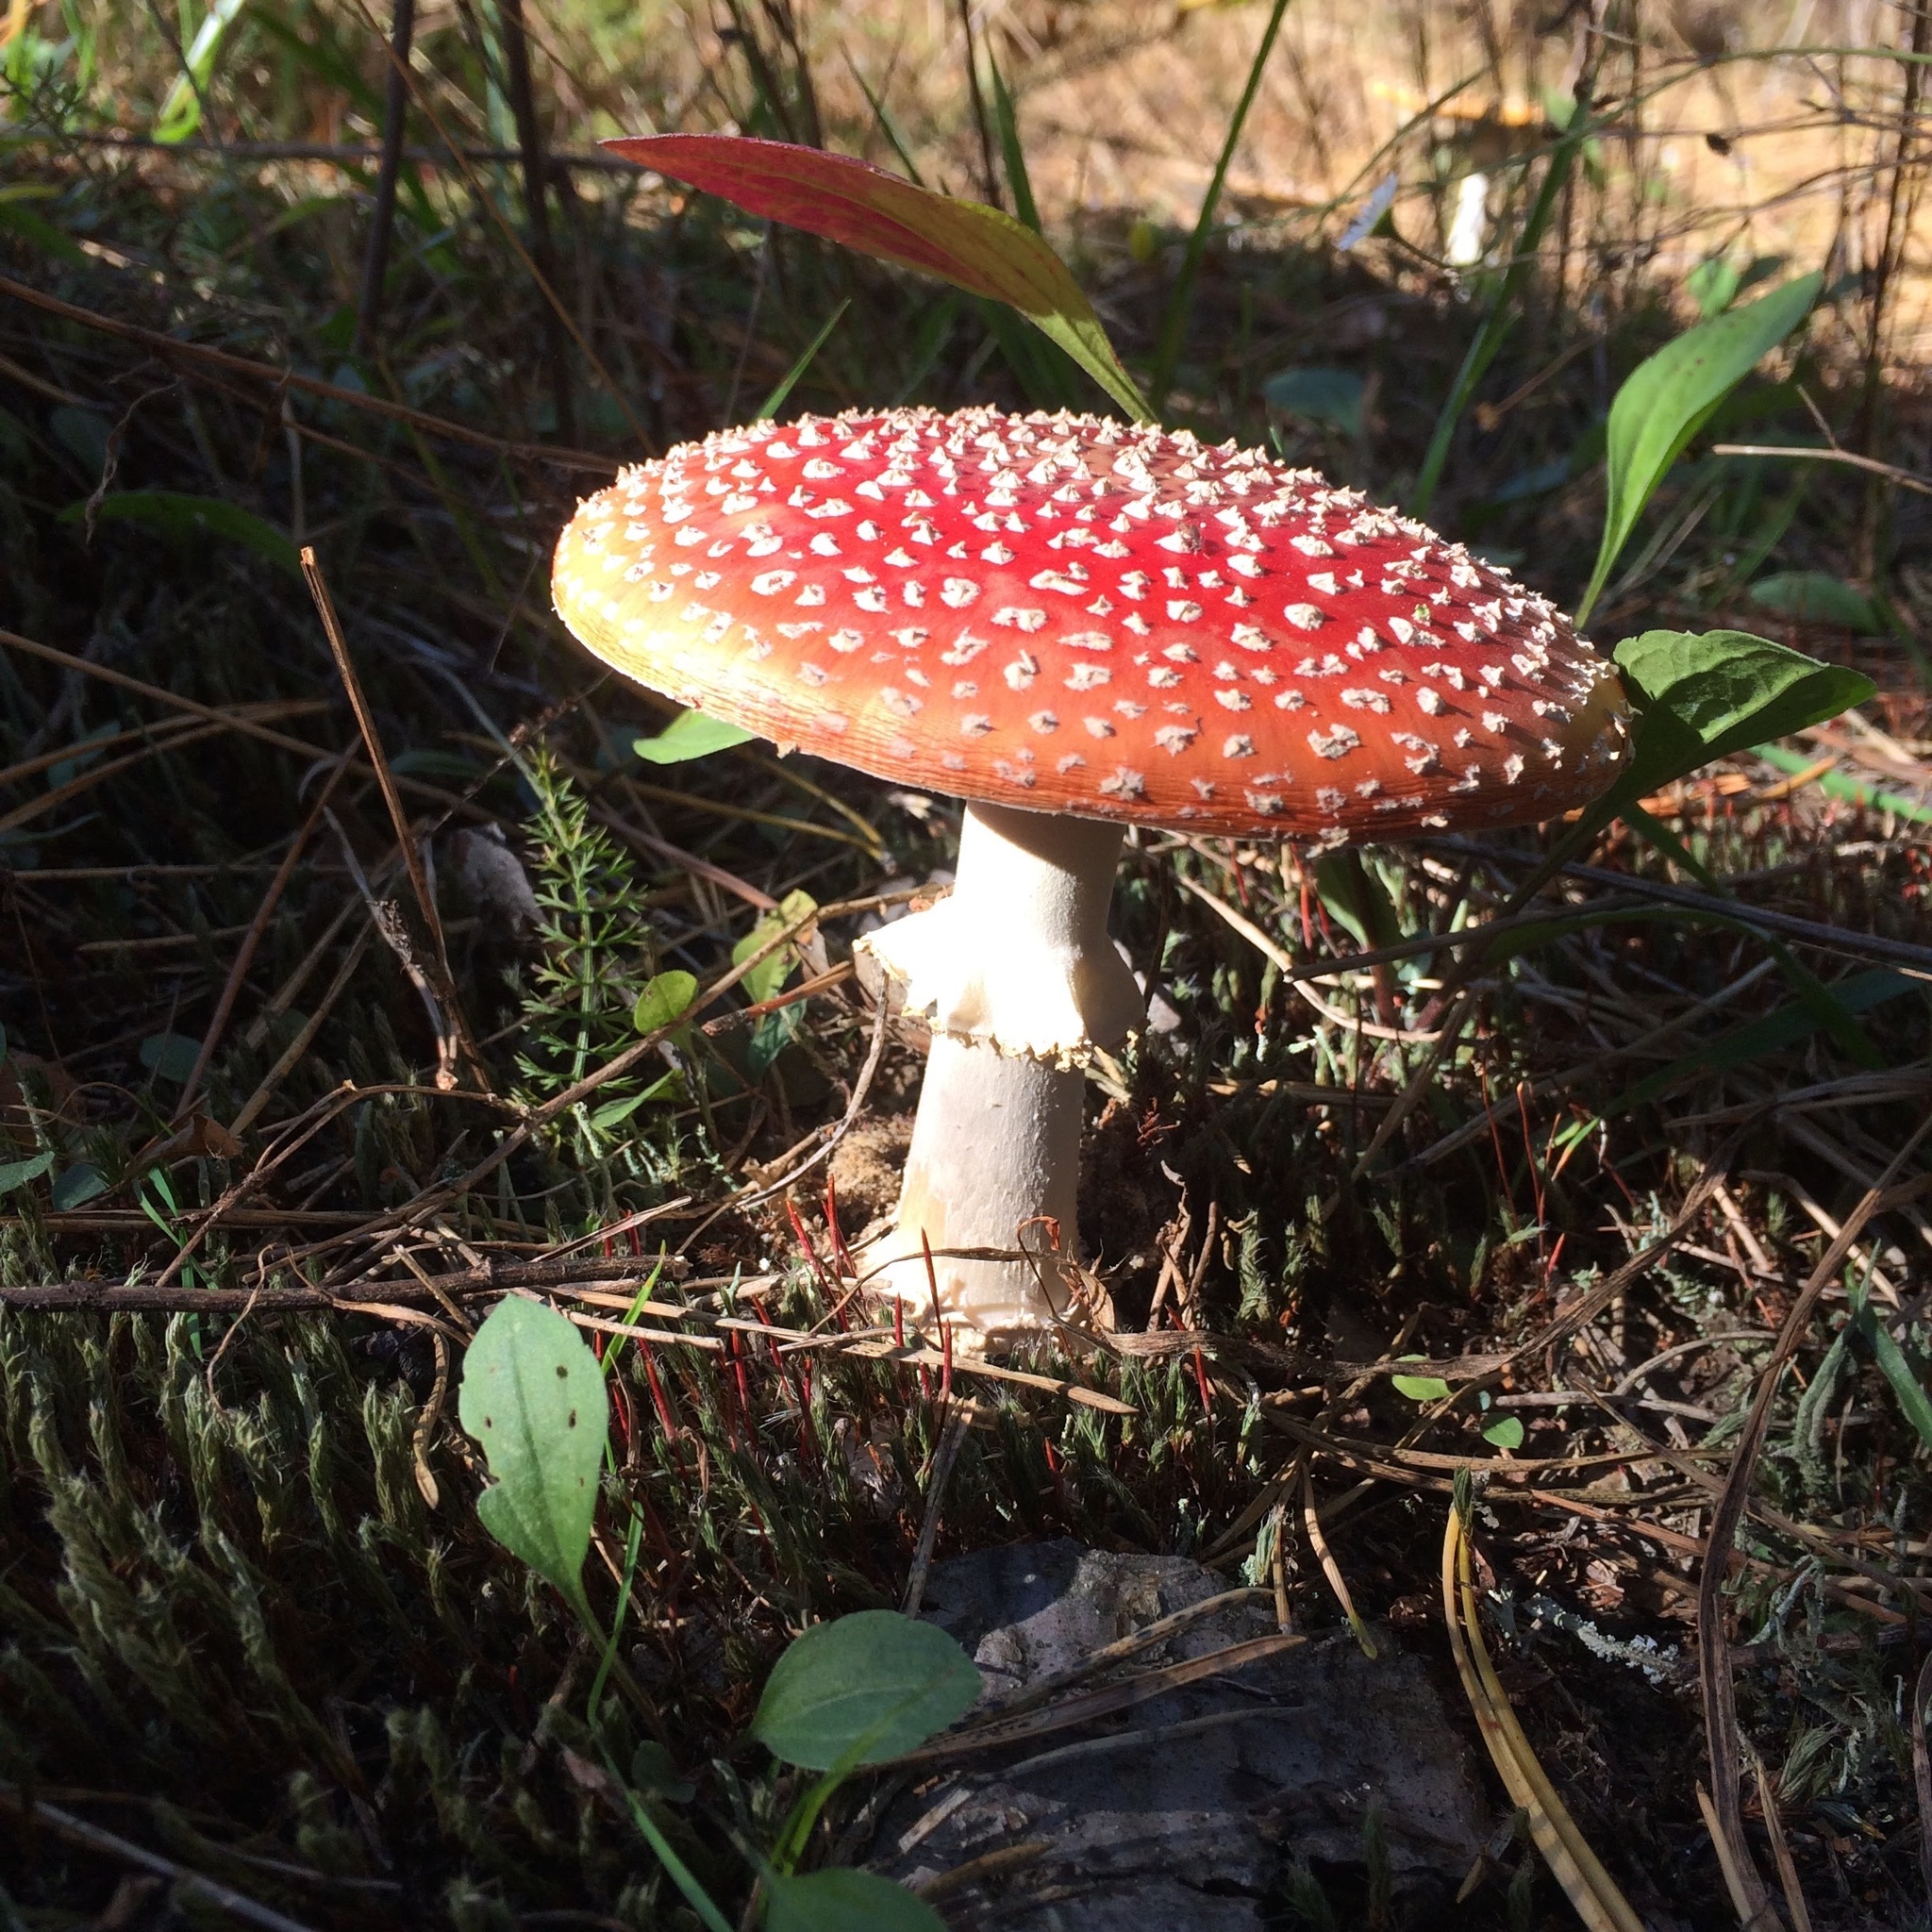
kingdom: Fungi
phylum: Basidiomycota
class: Agaricomycetes
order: Agaricales
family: Amanitaceae
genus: Amanita
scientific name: Amanita muscaria
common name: Fly agaric
